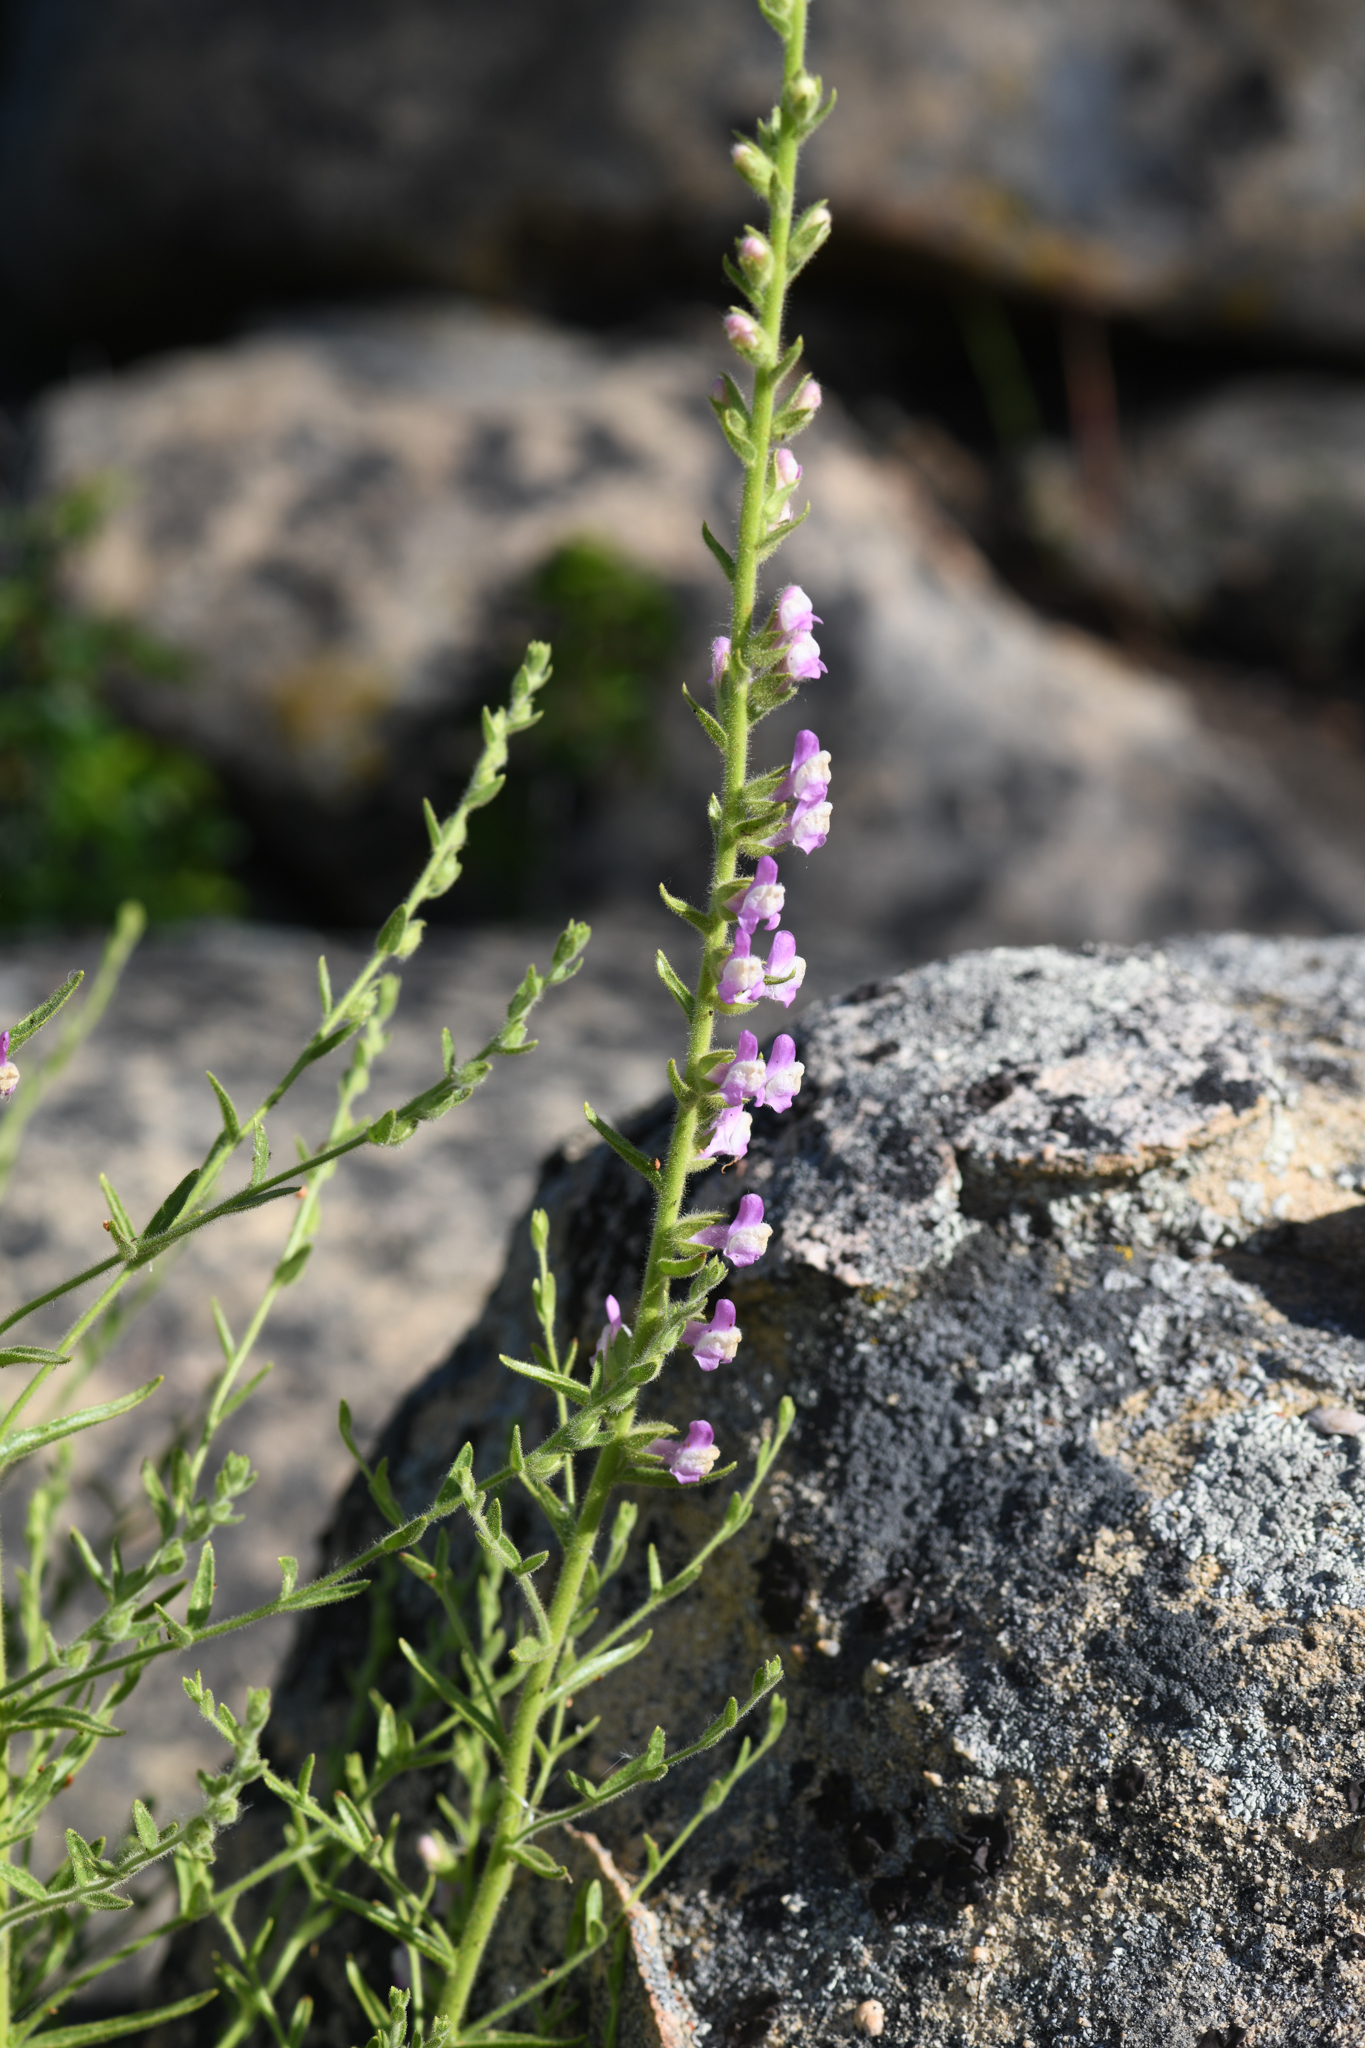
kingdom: Plantae
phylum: Tracheophyta
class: Magnoliopsida
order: Lamiales
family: Plantaginaceae
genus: Sairocarpus
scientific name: Sairocarpus multiflorus
